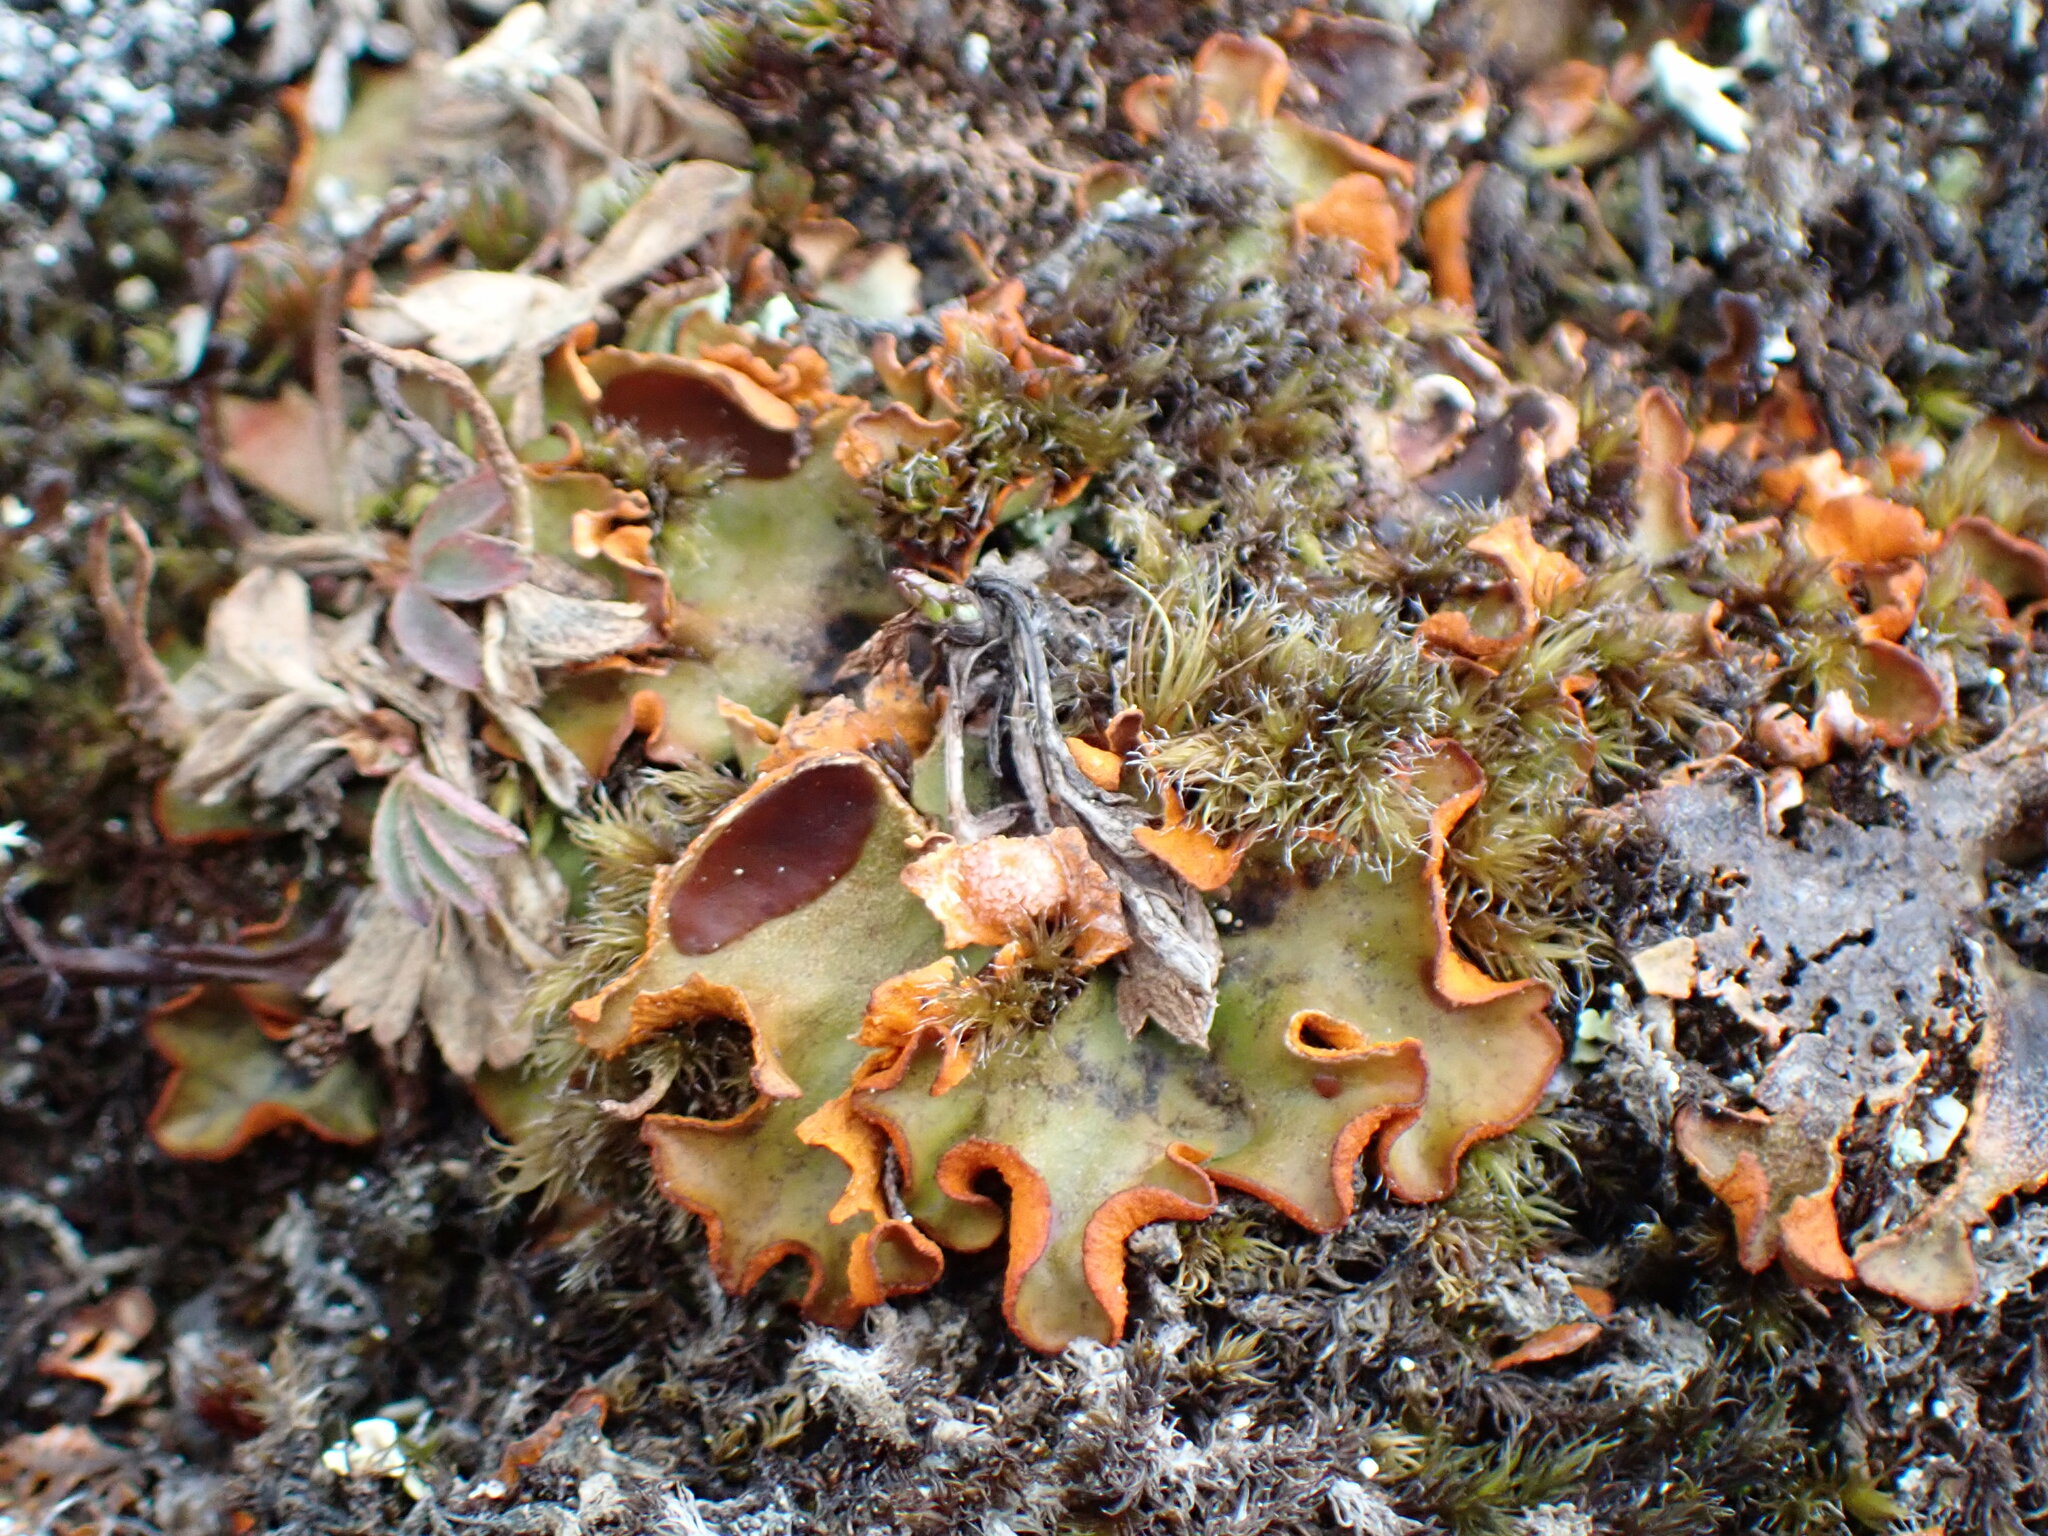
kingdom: Fungi
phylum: Ascomycota
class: Lecanoromycetes
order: Peltigerales
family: Peltigeraceae
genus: Solorina
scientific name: Solorina crocea
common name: Mountain saffron
